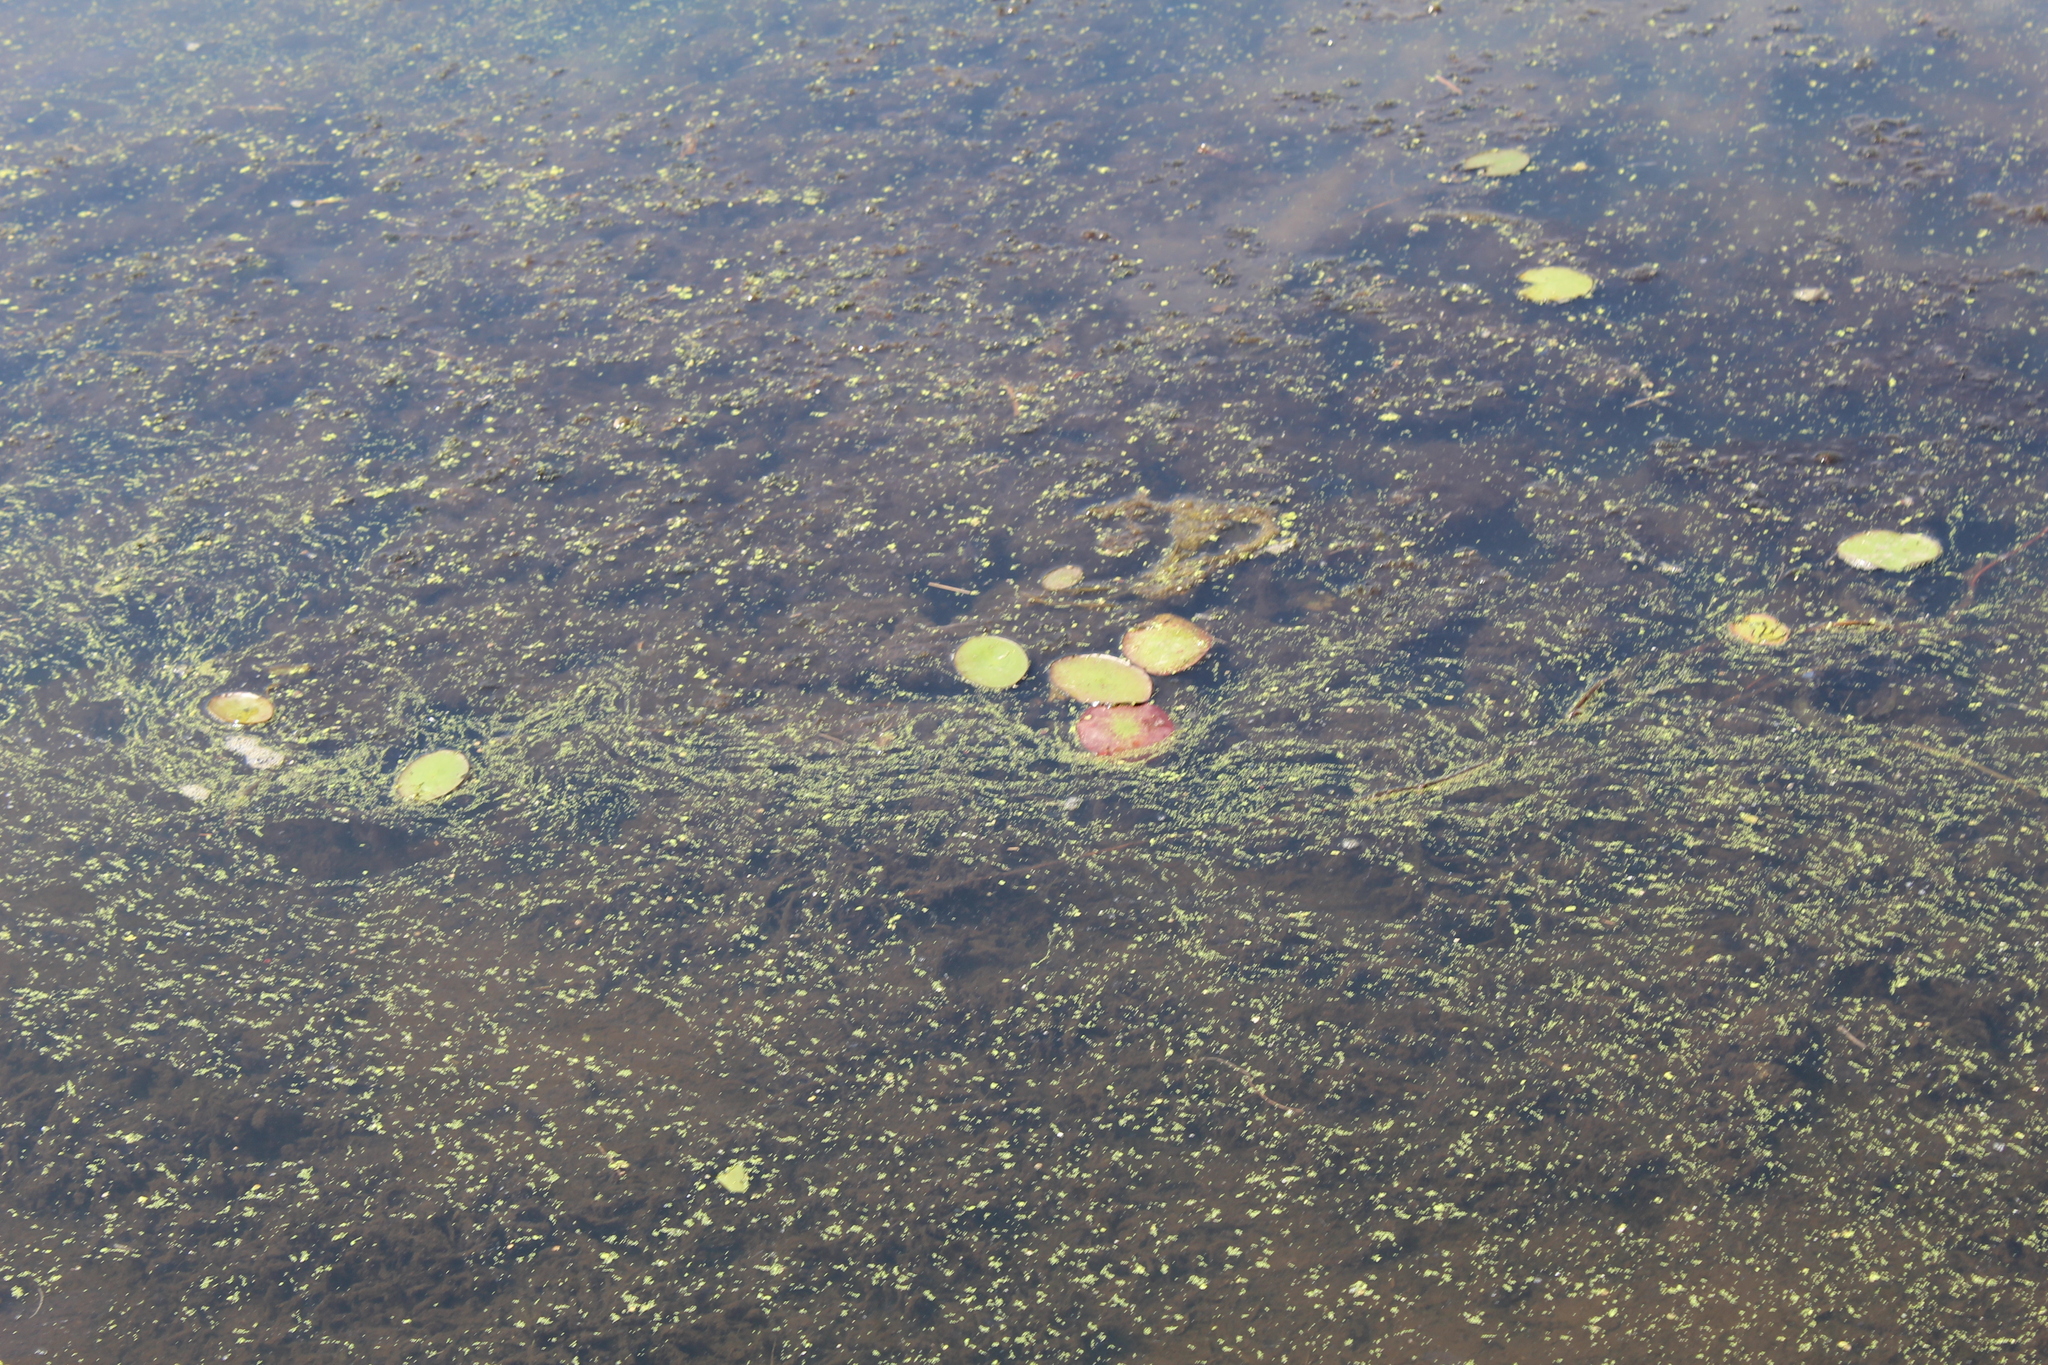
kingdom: Plantae
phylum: Tracheophyta
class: Magnoliopsida
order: Nymphaeales
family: Cabombaceae
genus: Brasenia
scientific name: Brasenia schreberi
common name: Water-shield
